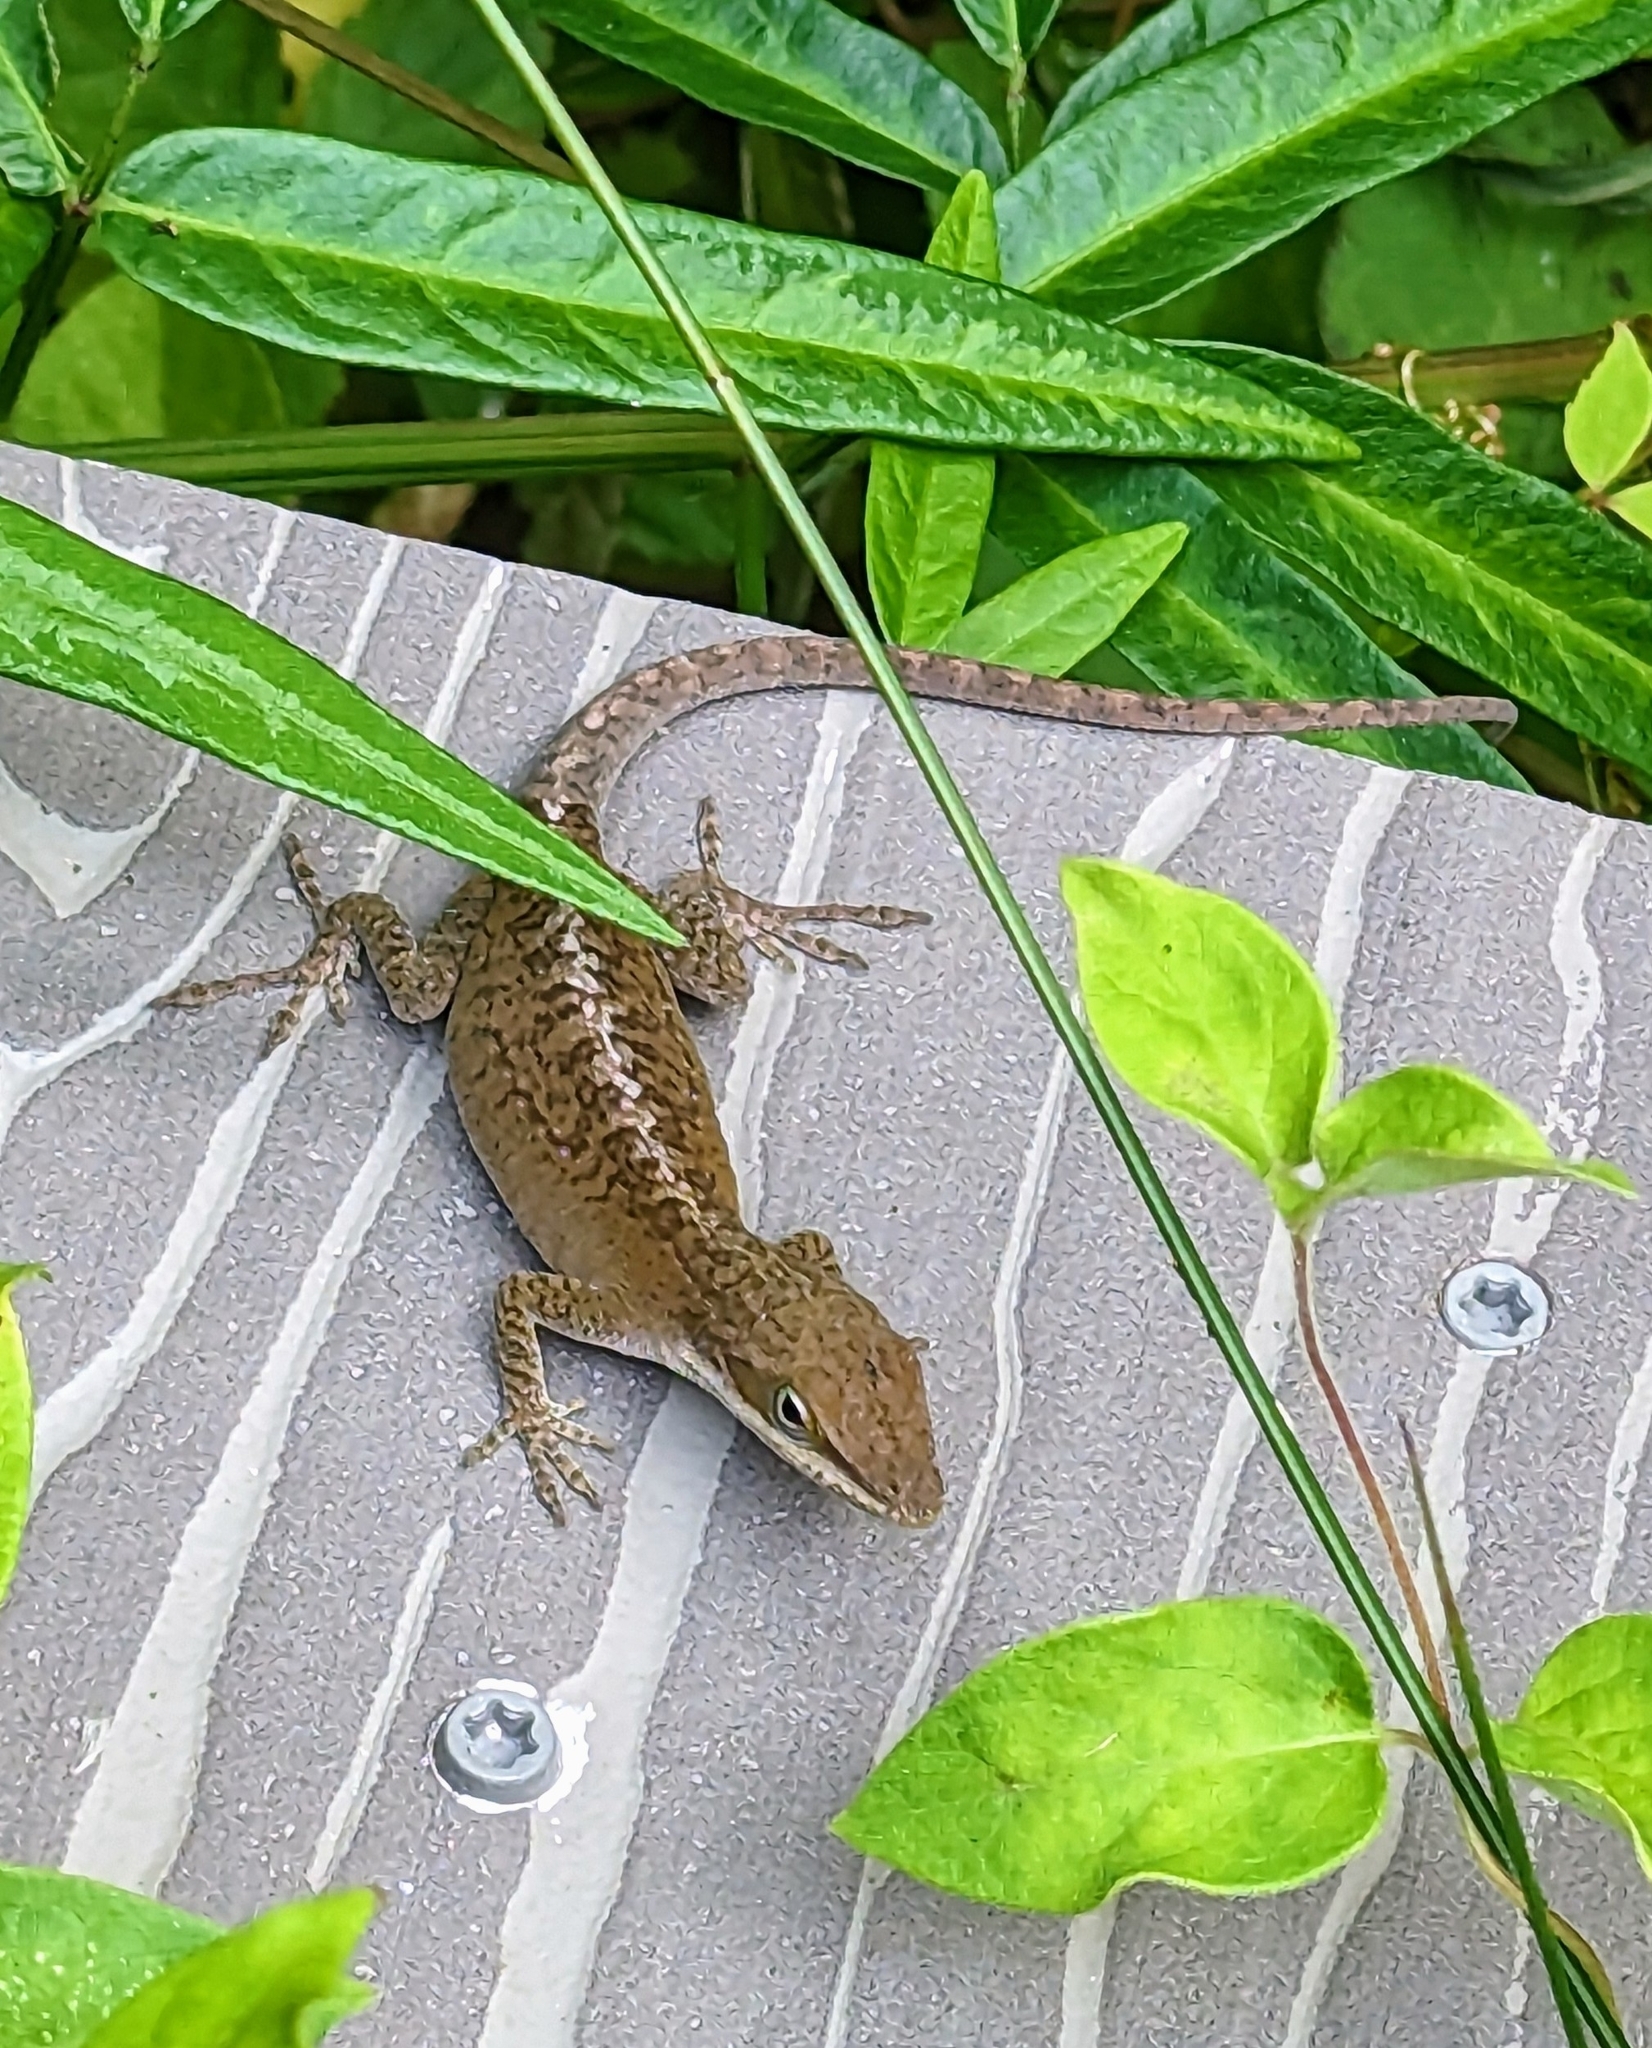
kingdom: Animalia
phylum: Chordata
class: Squamata
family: Dactyloidae
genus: Anolis
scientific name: Anolis carolinensis
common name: Green anole
